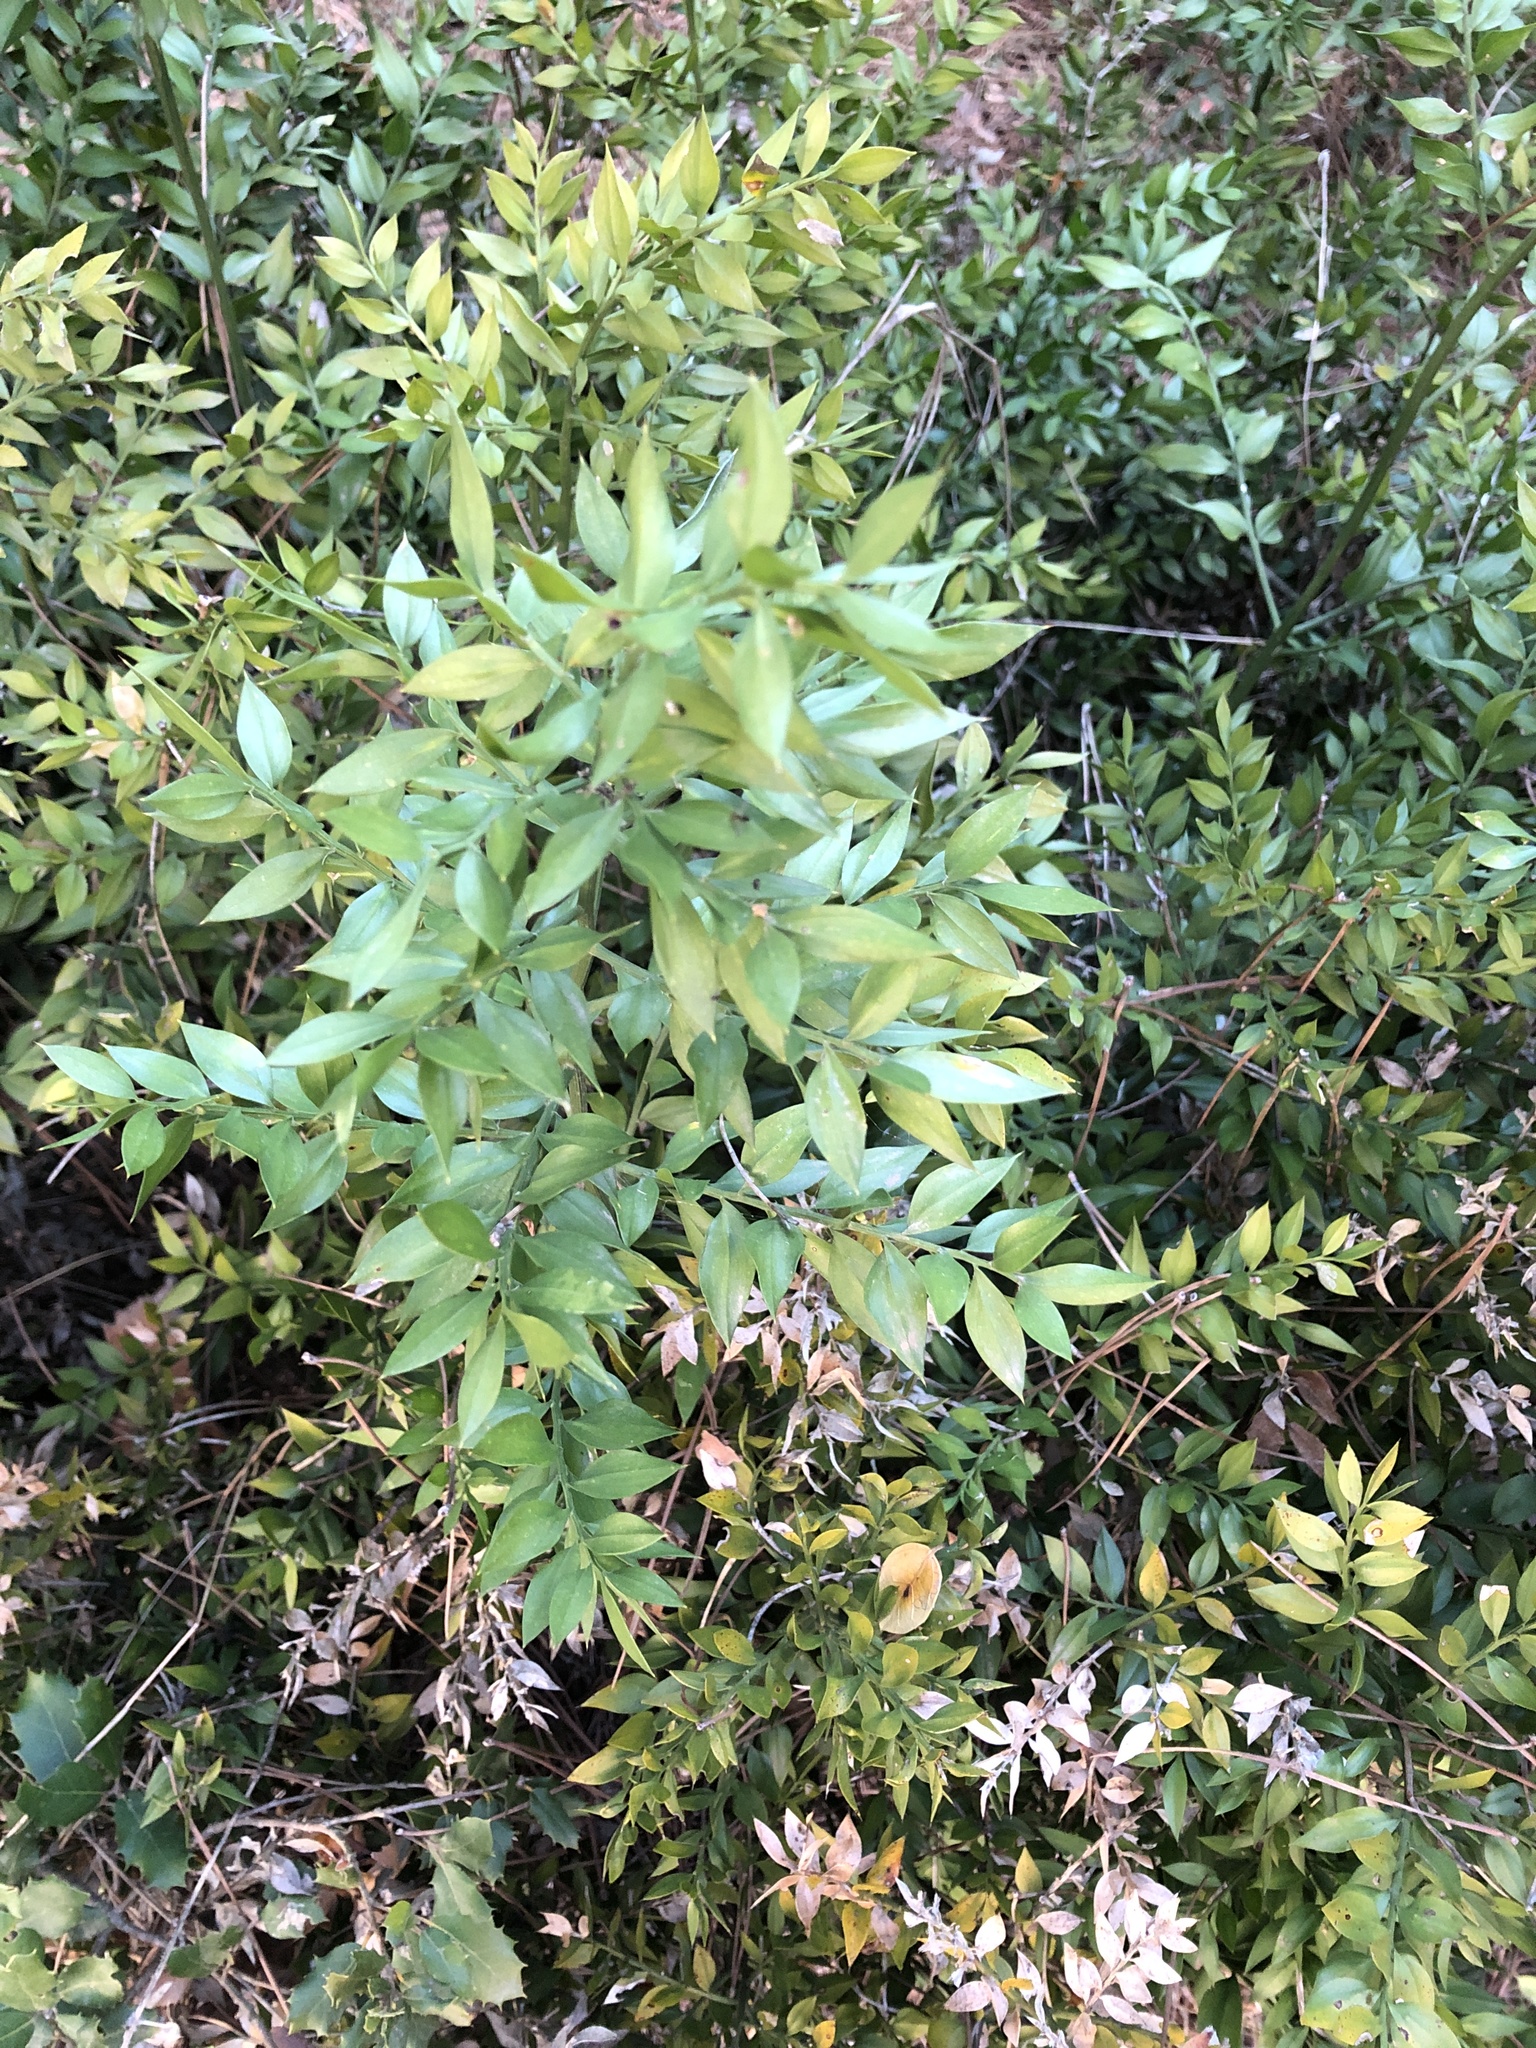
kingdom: Plantae
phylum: Tracheophyta
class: Liliopsida
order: Asparagales
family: Asparagaceae
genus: Ruscus
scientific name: Ruscus aculeatus
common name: Butcher's-broom
